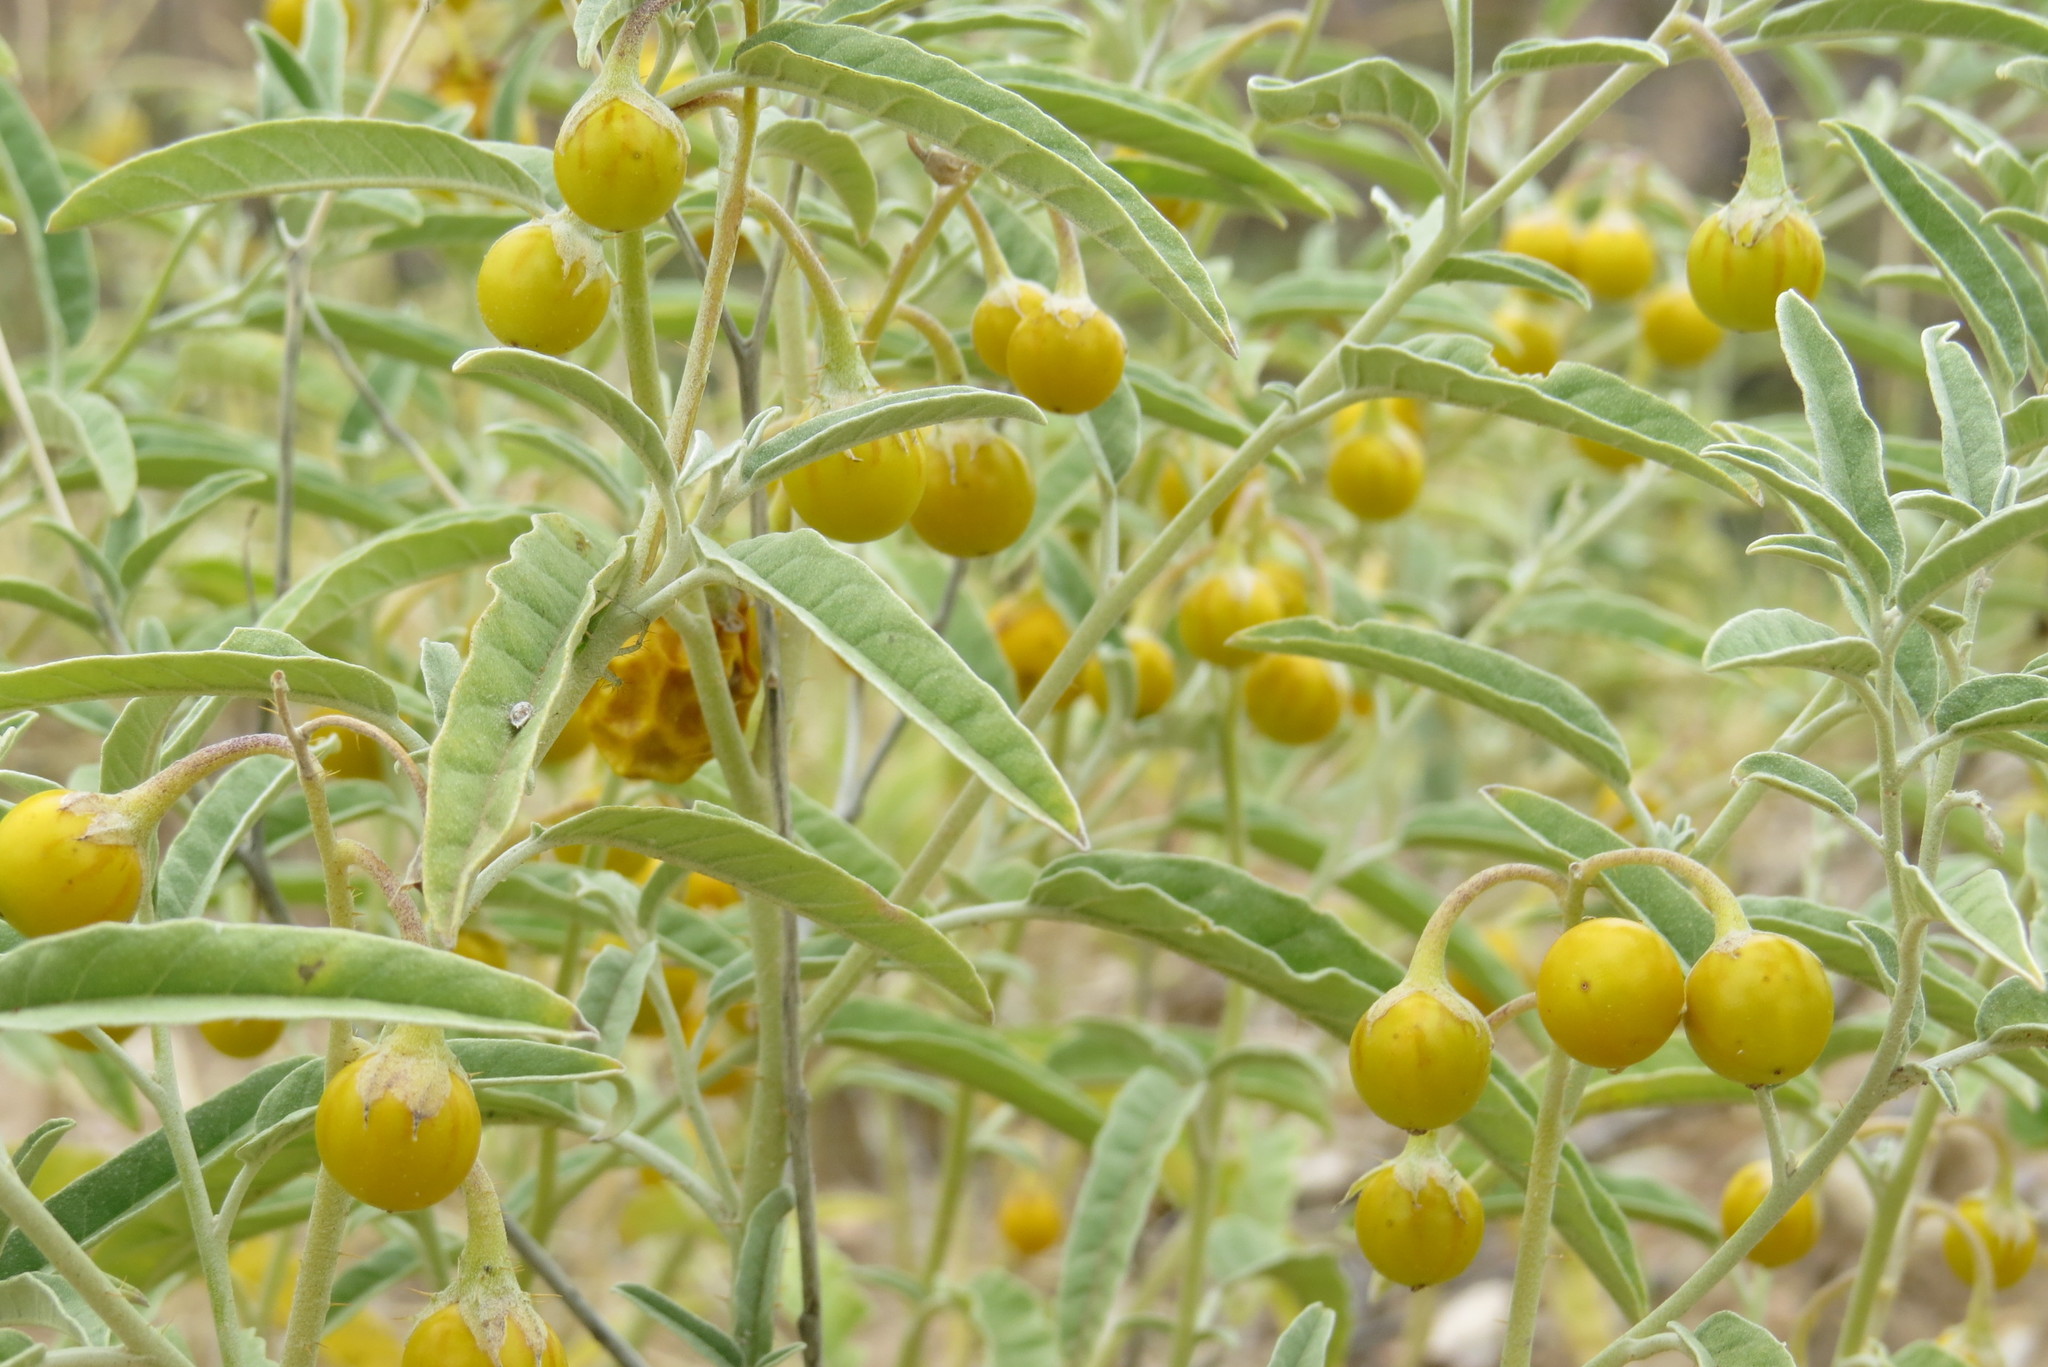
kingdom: Plantae
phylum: Tracheophyta
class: Magnoliopsida
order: Solanales
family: Solanaceae
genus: Solanum
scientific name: Solanum elaeagnifolium
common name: Silverleaf nightshade
